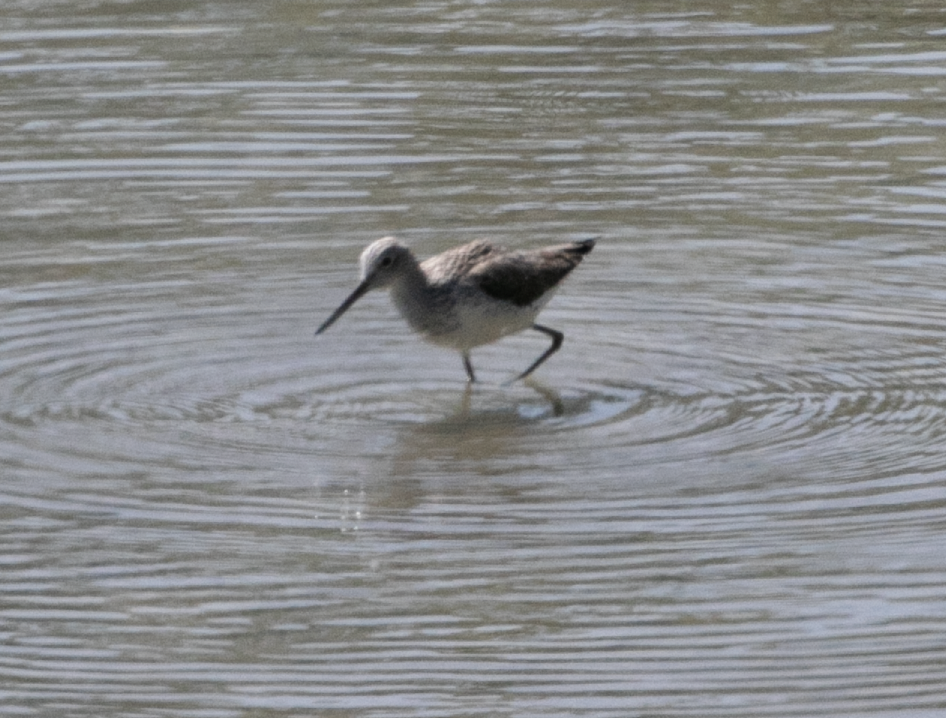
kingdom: Animalia
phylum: Chordata
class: Aves
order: Charadriiformes
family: Scolopacidae
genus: Tringa
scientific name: Tringa nebularia
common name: Common greenshank
